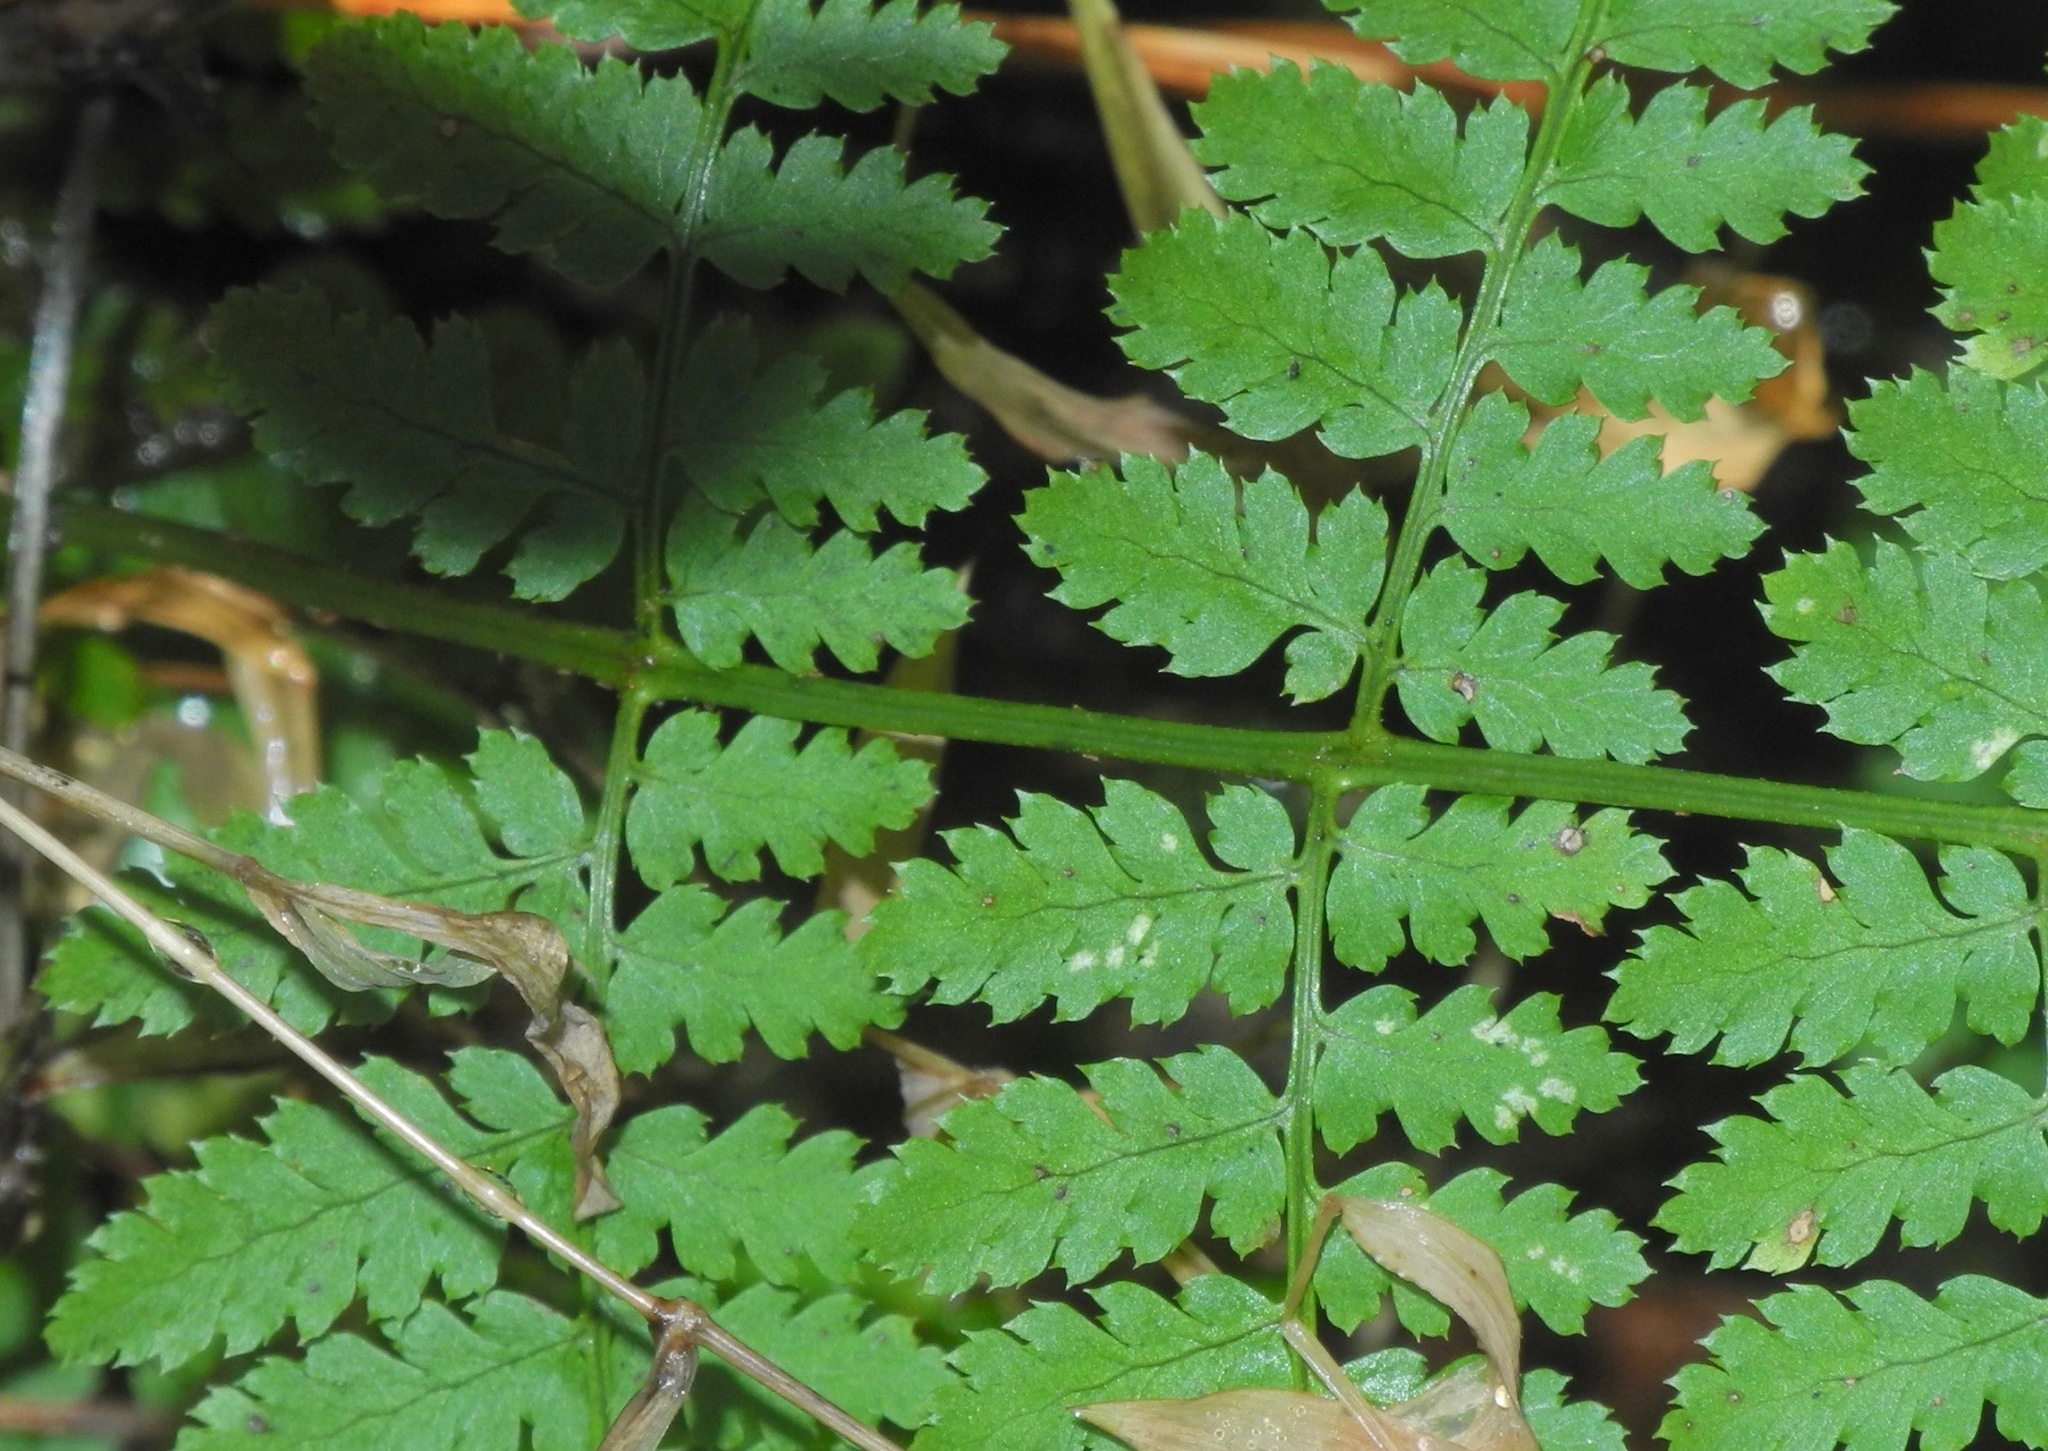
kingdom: Plantae
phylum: Tracheophyta
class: Polypodiopsida
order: Polypodiales
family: Dryopteridaceae
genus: Dryopteris
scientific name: Dryopteris intermedia
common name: Evergreen wood fern
